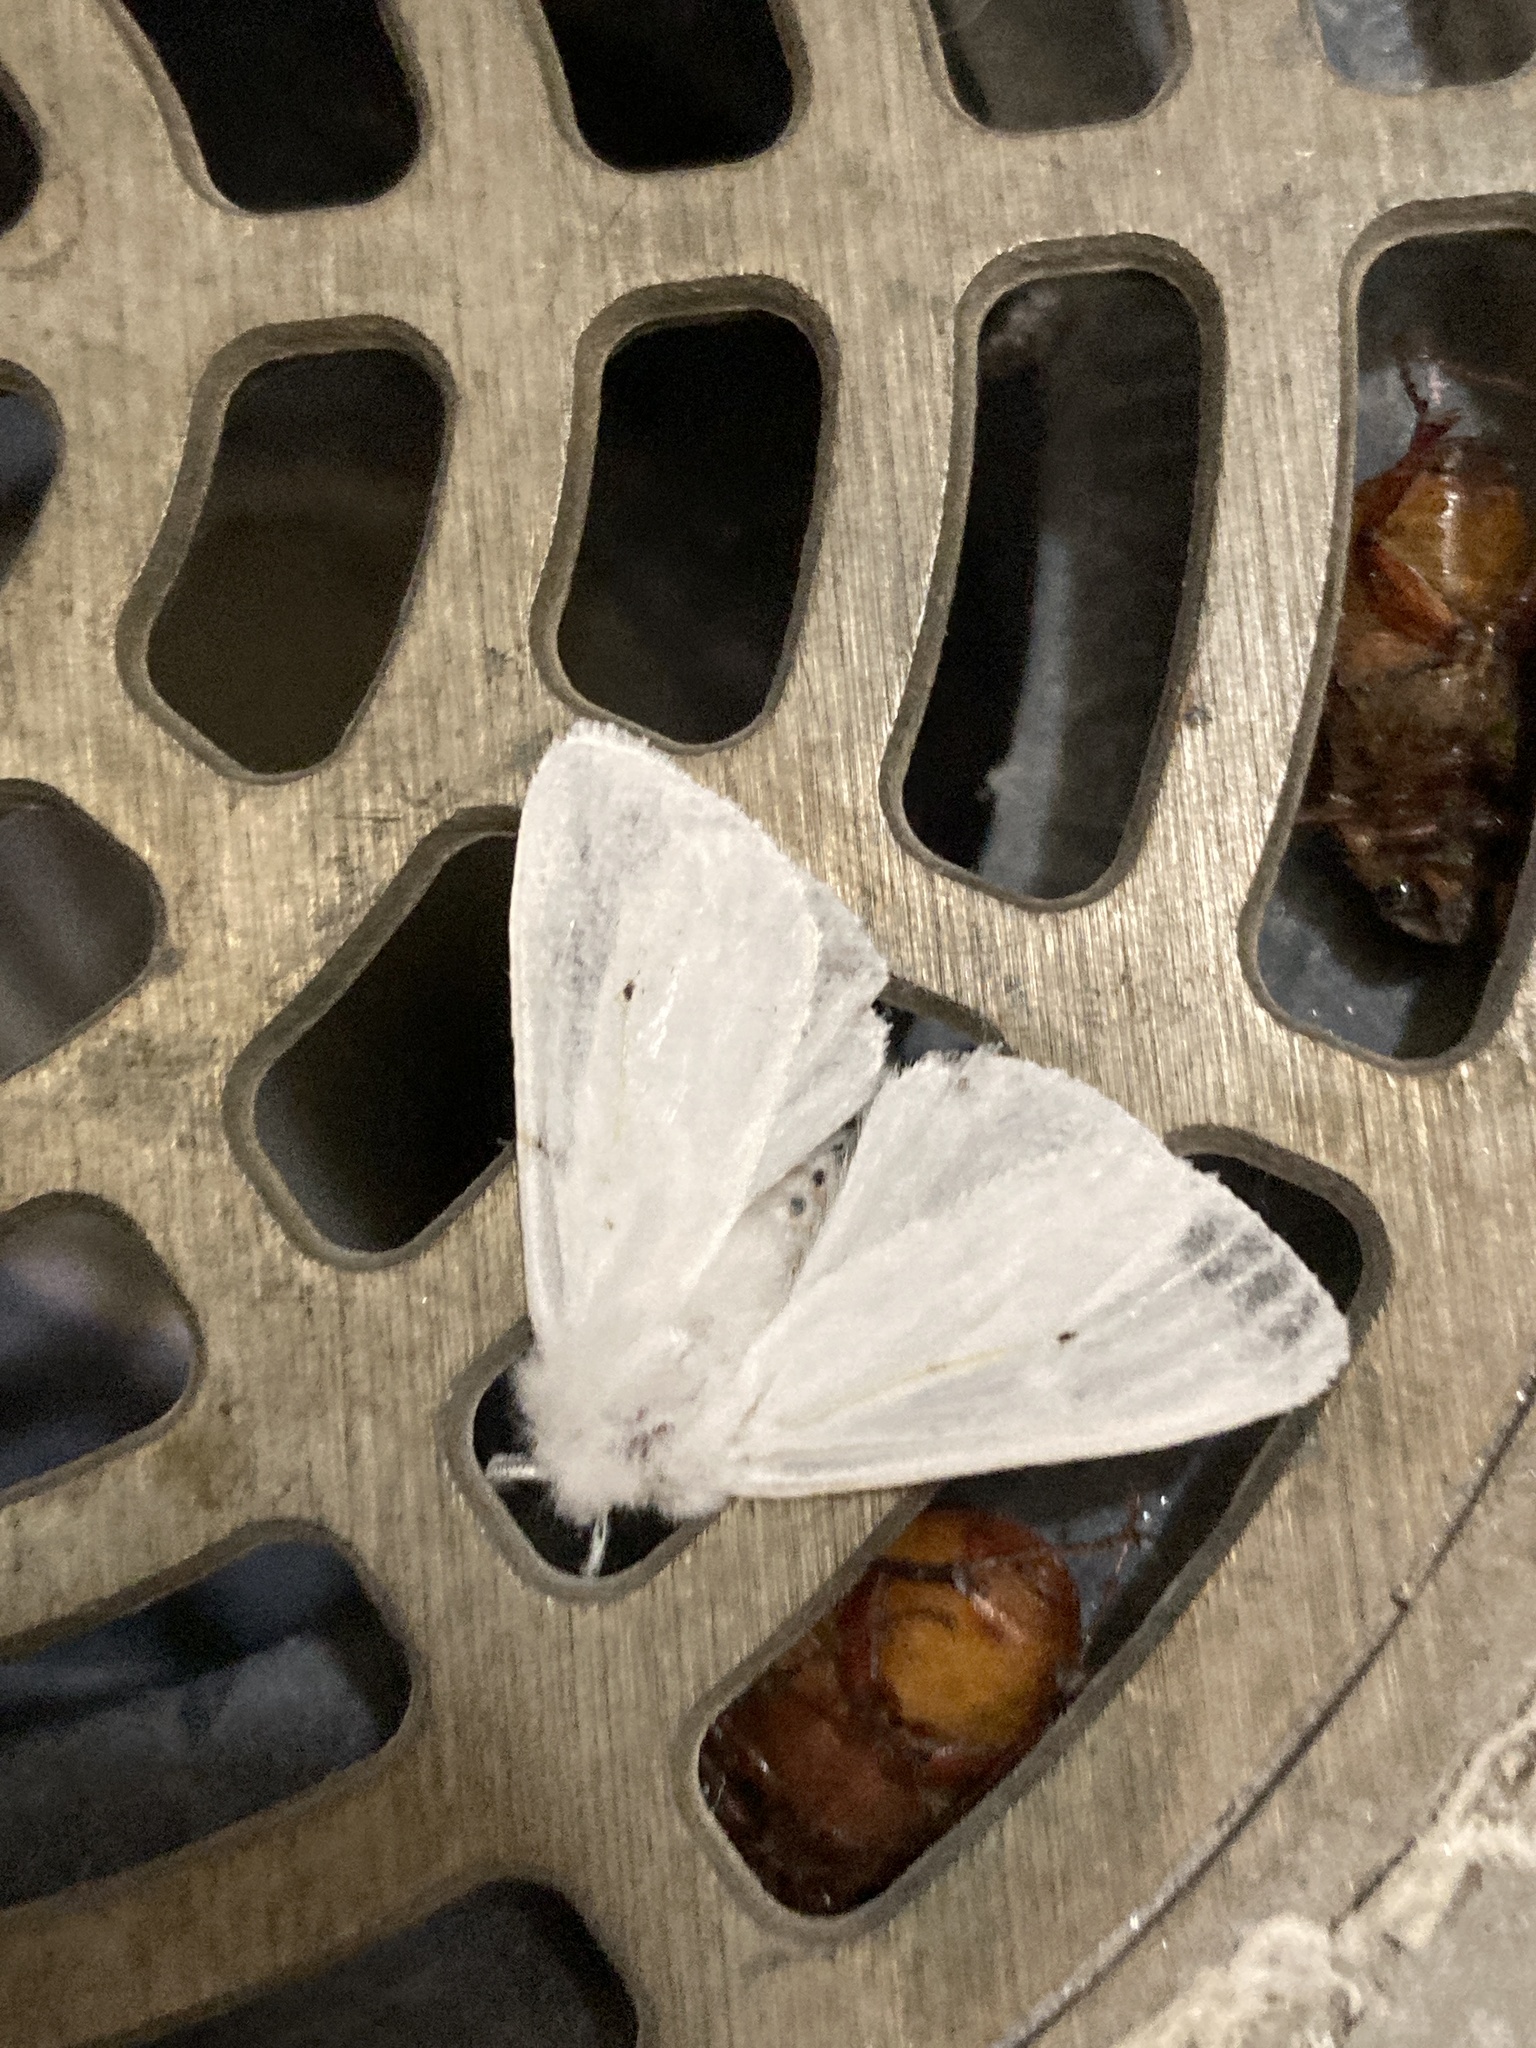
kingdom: Animalia
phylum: Arthropoda
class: Insecta
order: Lepidoptera
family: Erebidae
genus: Spilosoma
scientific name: Spilosoma virginica
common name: Virginia tiger moth
